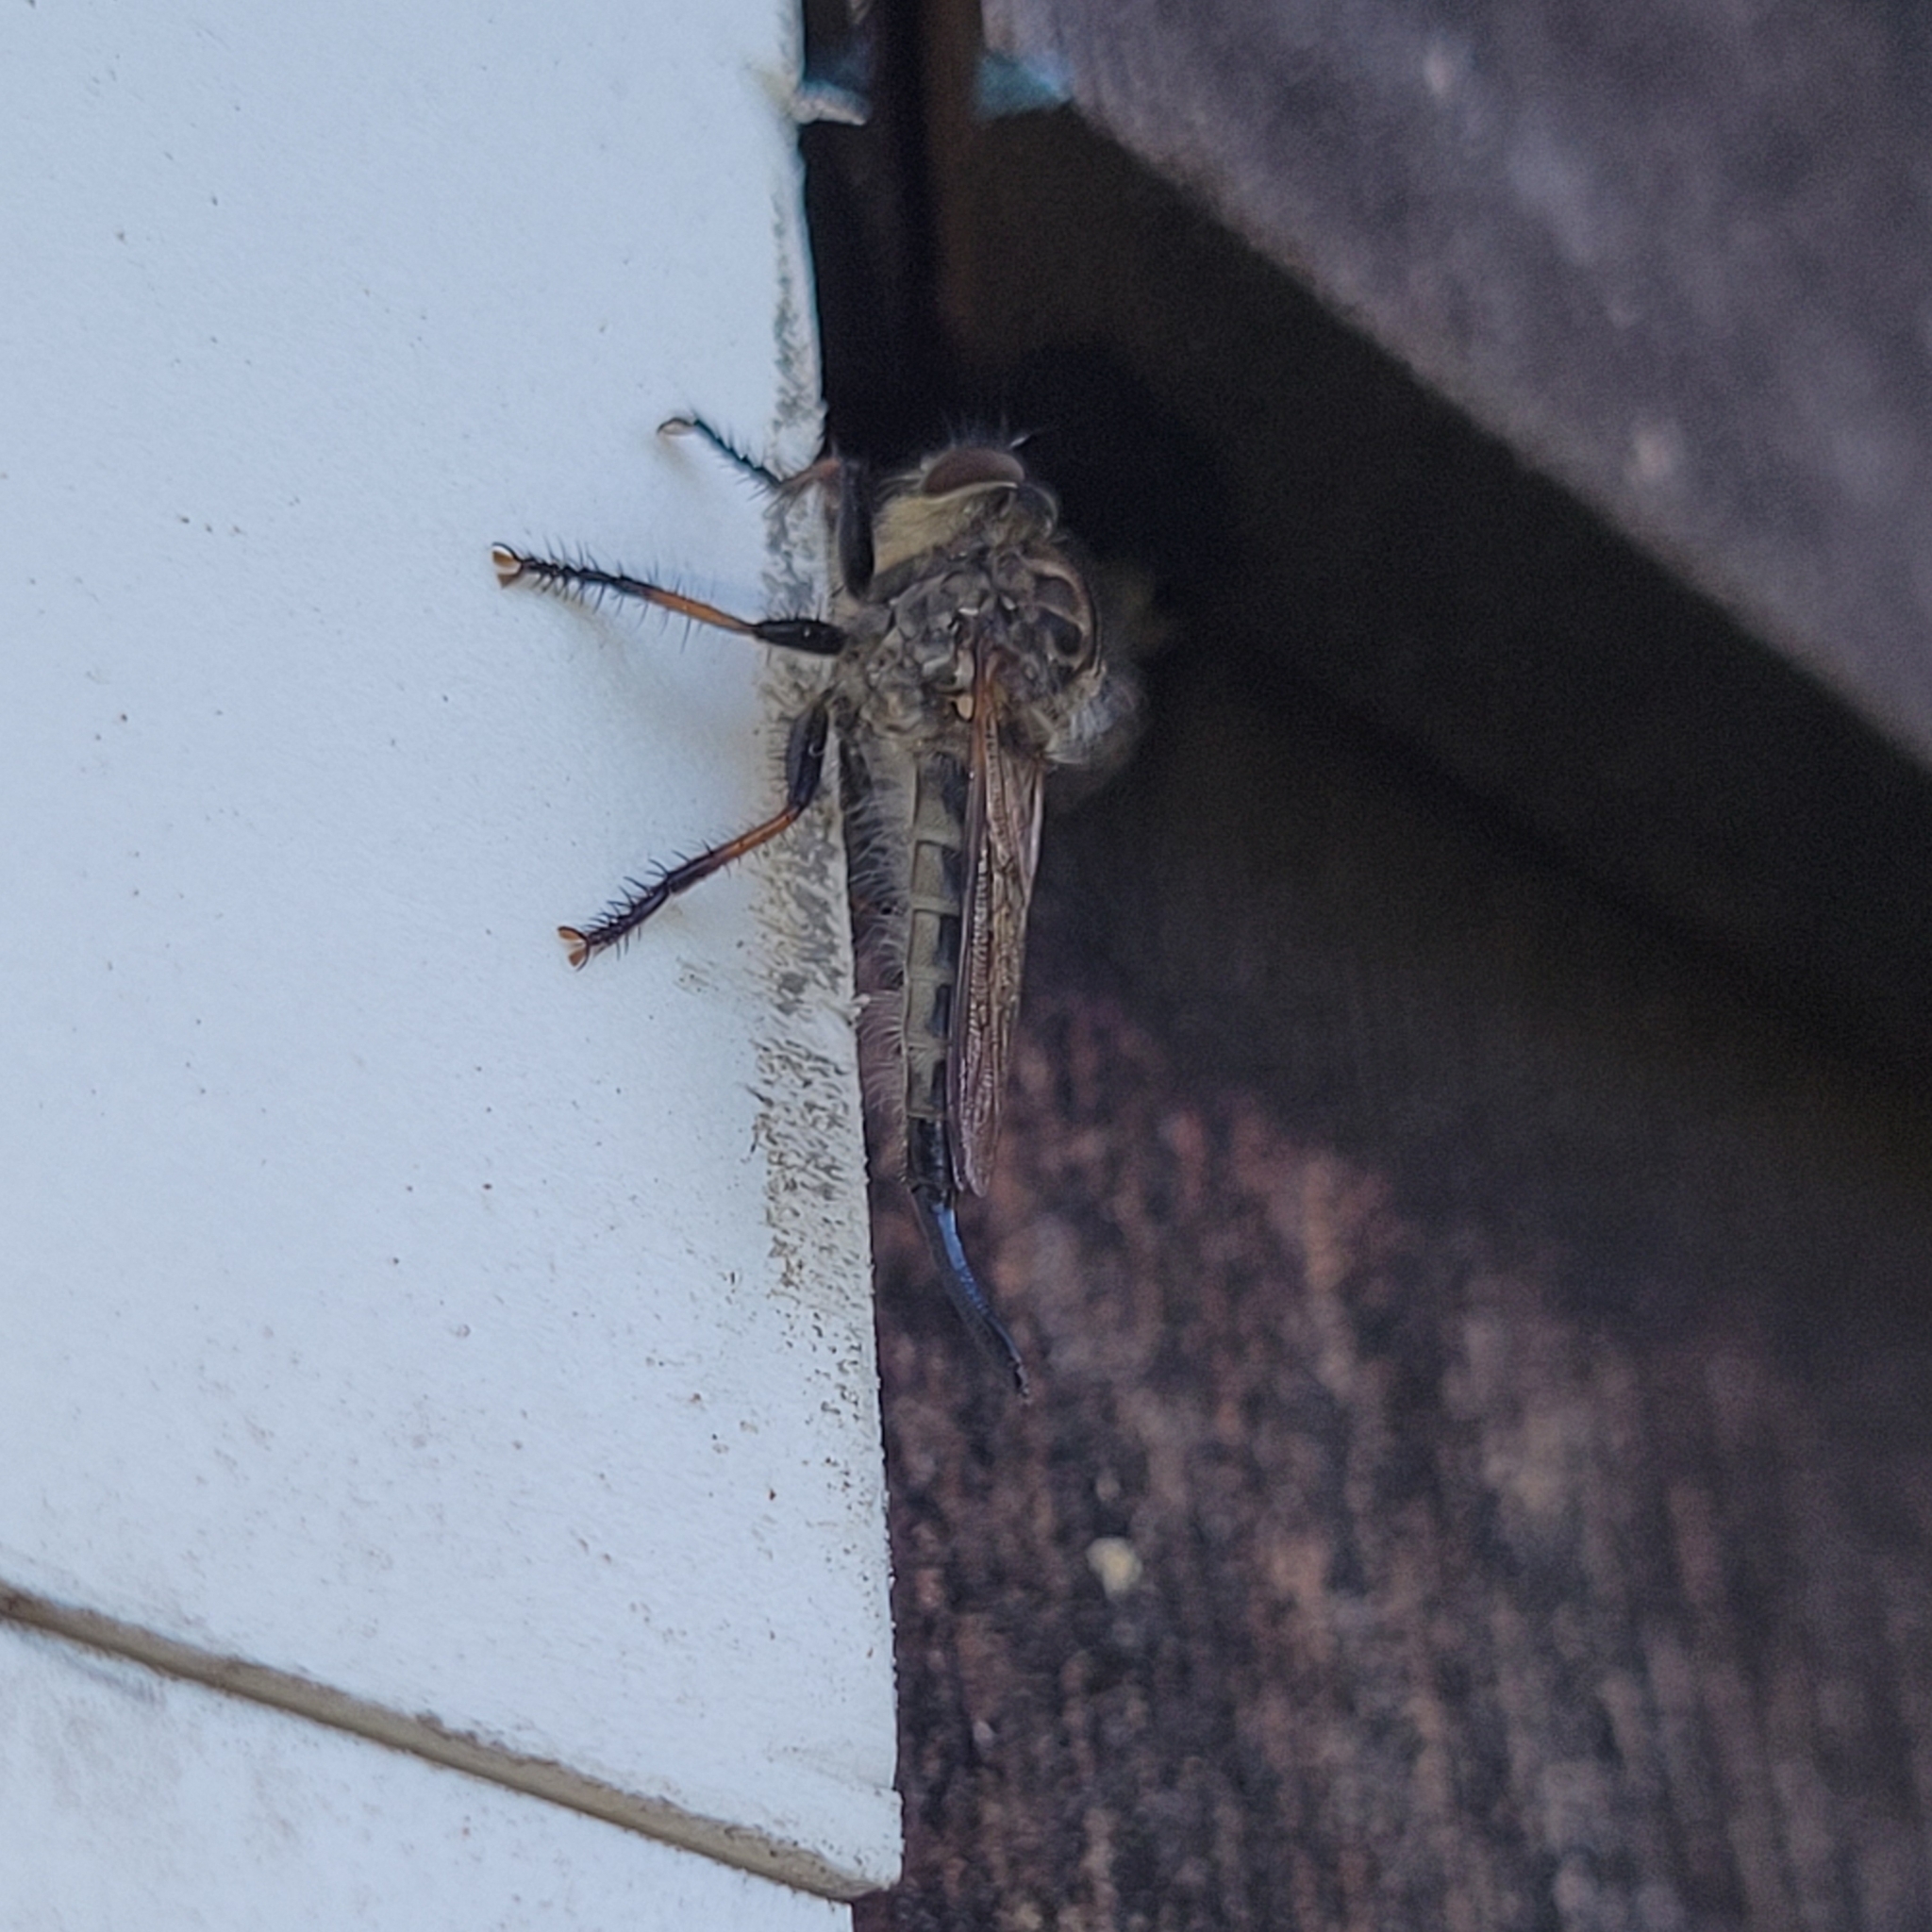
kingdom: Animalia
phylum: Arthropoda
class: Insecta
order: Diptera
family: Asilidae
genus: Efferia
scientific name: Efferia aestuans
